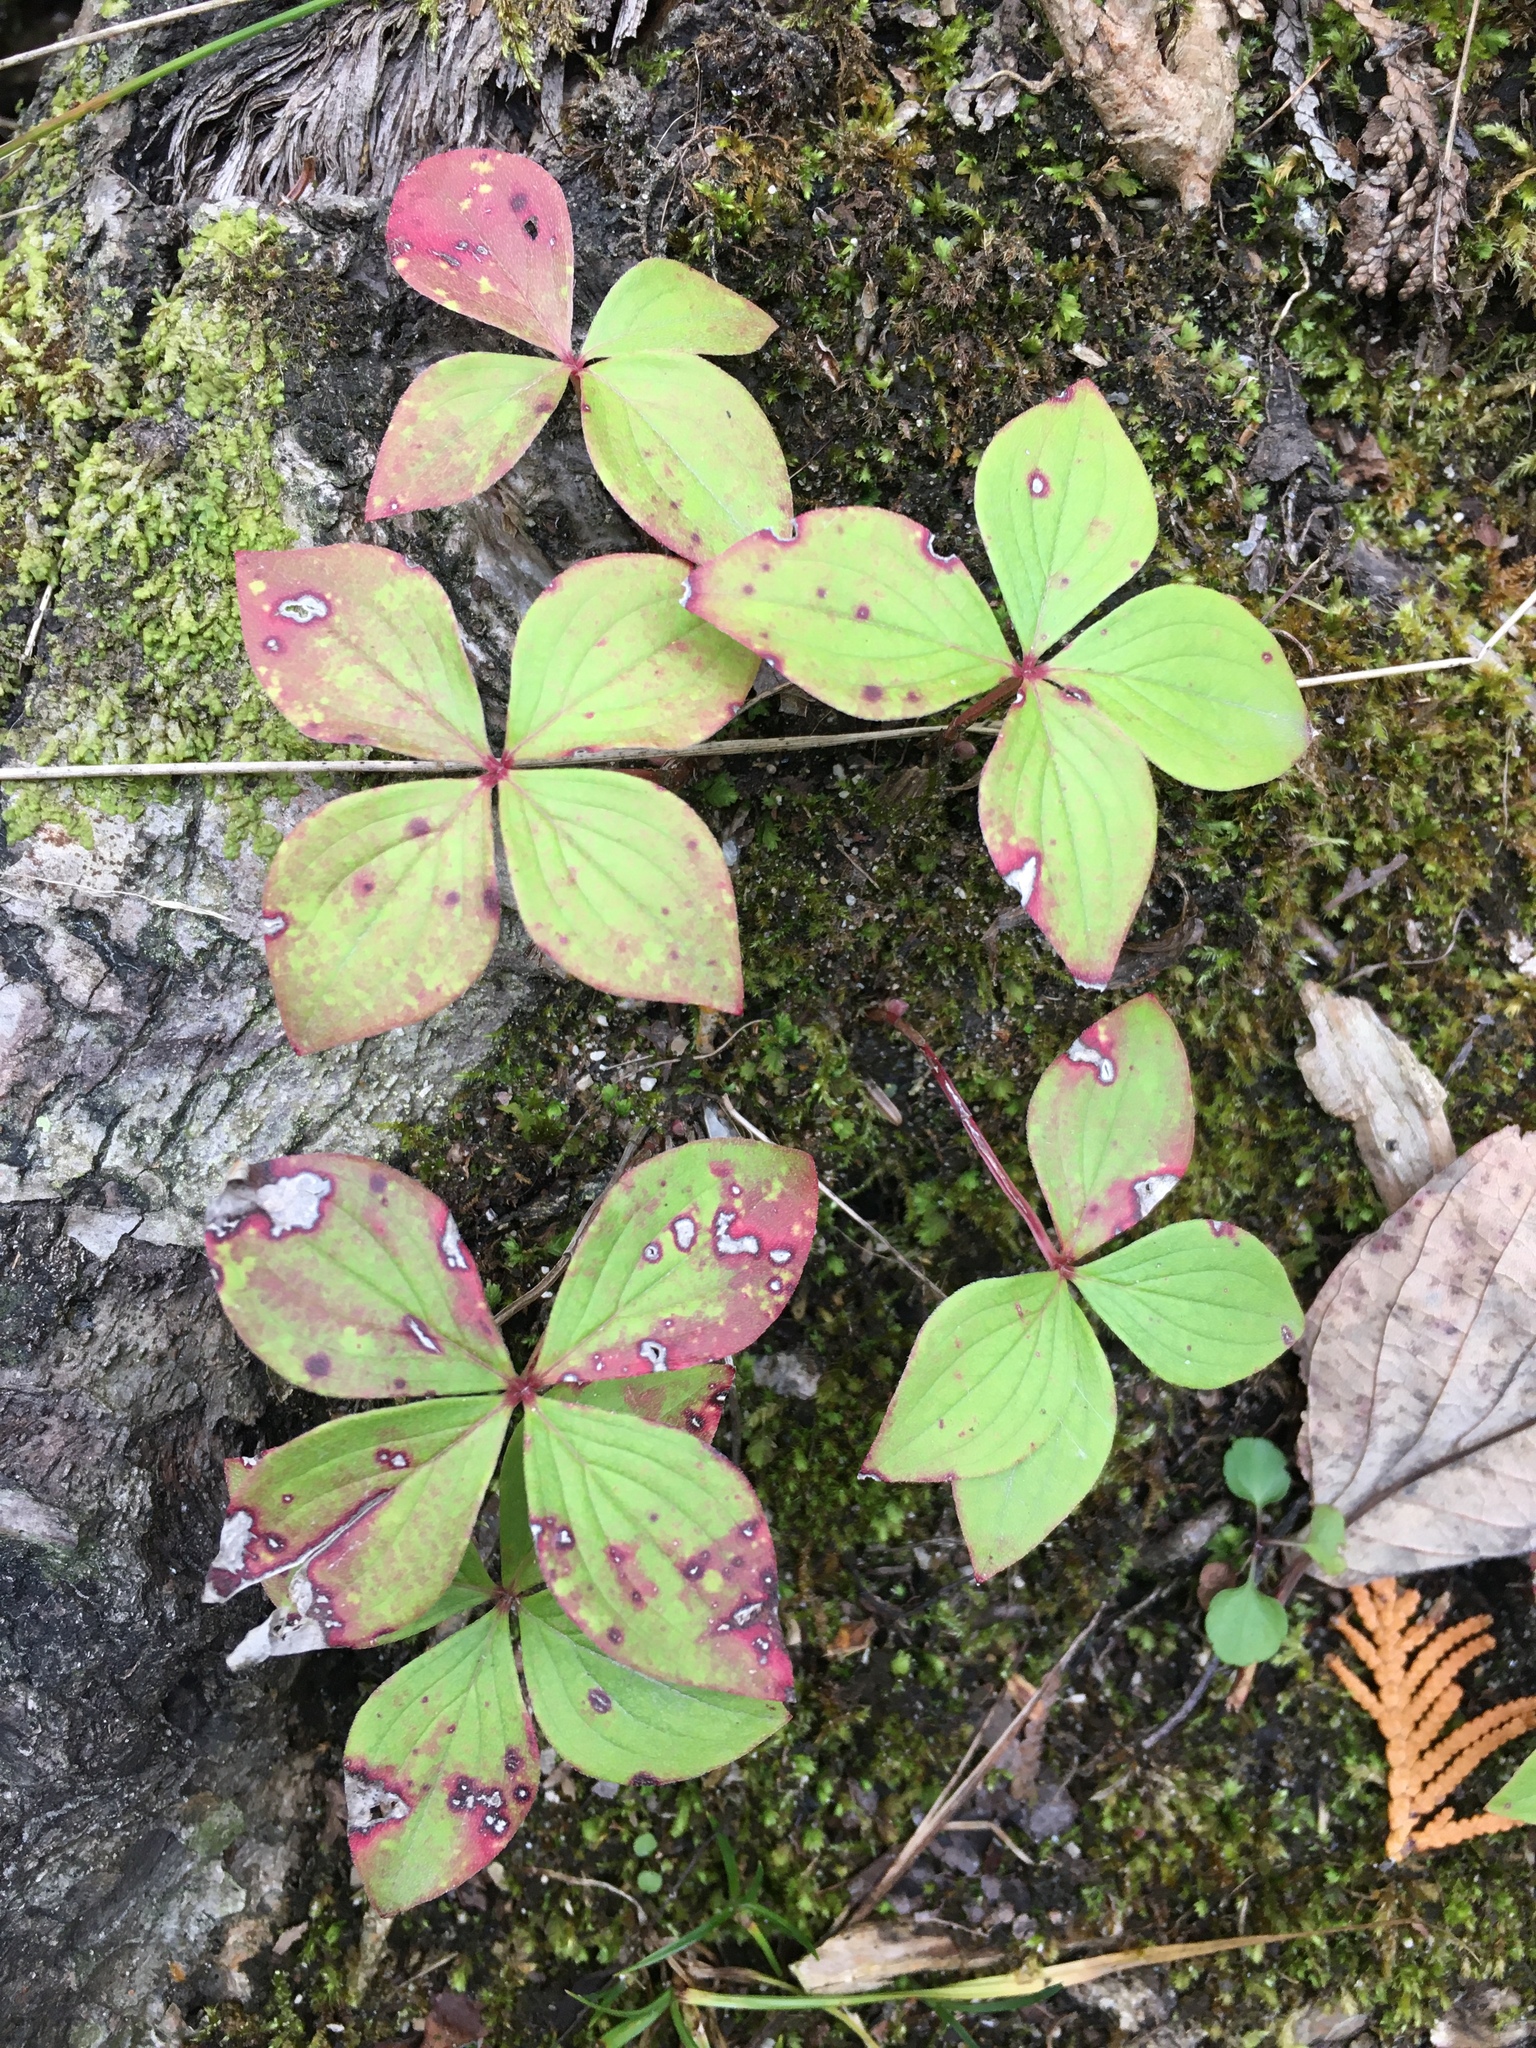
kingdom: Plantae
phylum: Tracheophyta
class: Magnoliopsida
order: Cornales
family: Cornaceae
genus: Cornus
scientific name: Cornus canadensis
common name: Creeping dogwood
